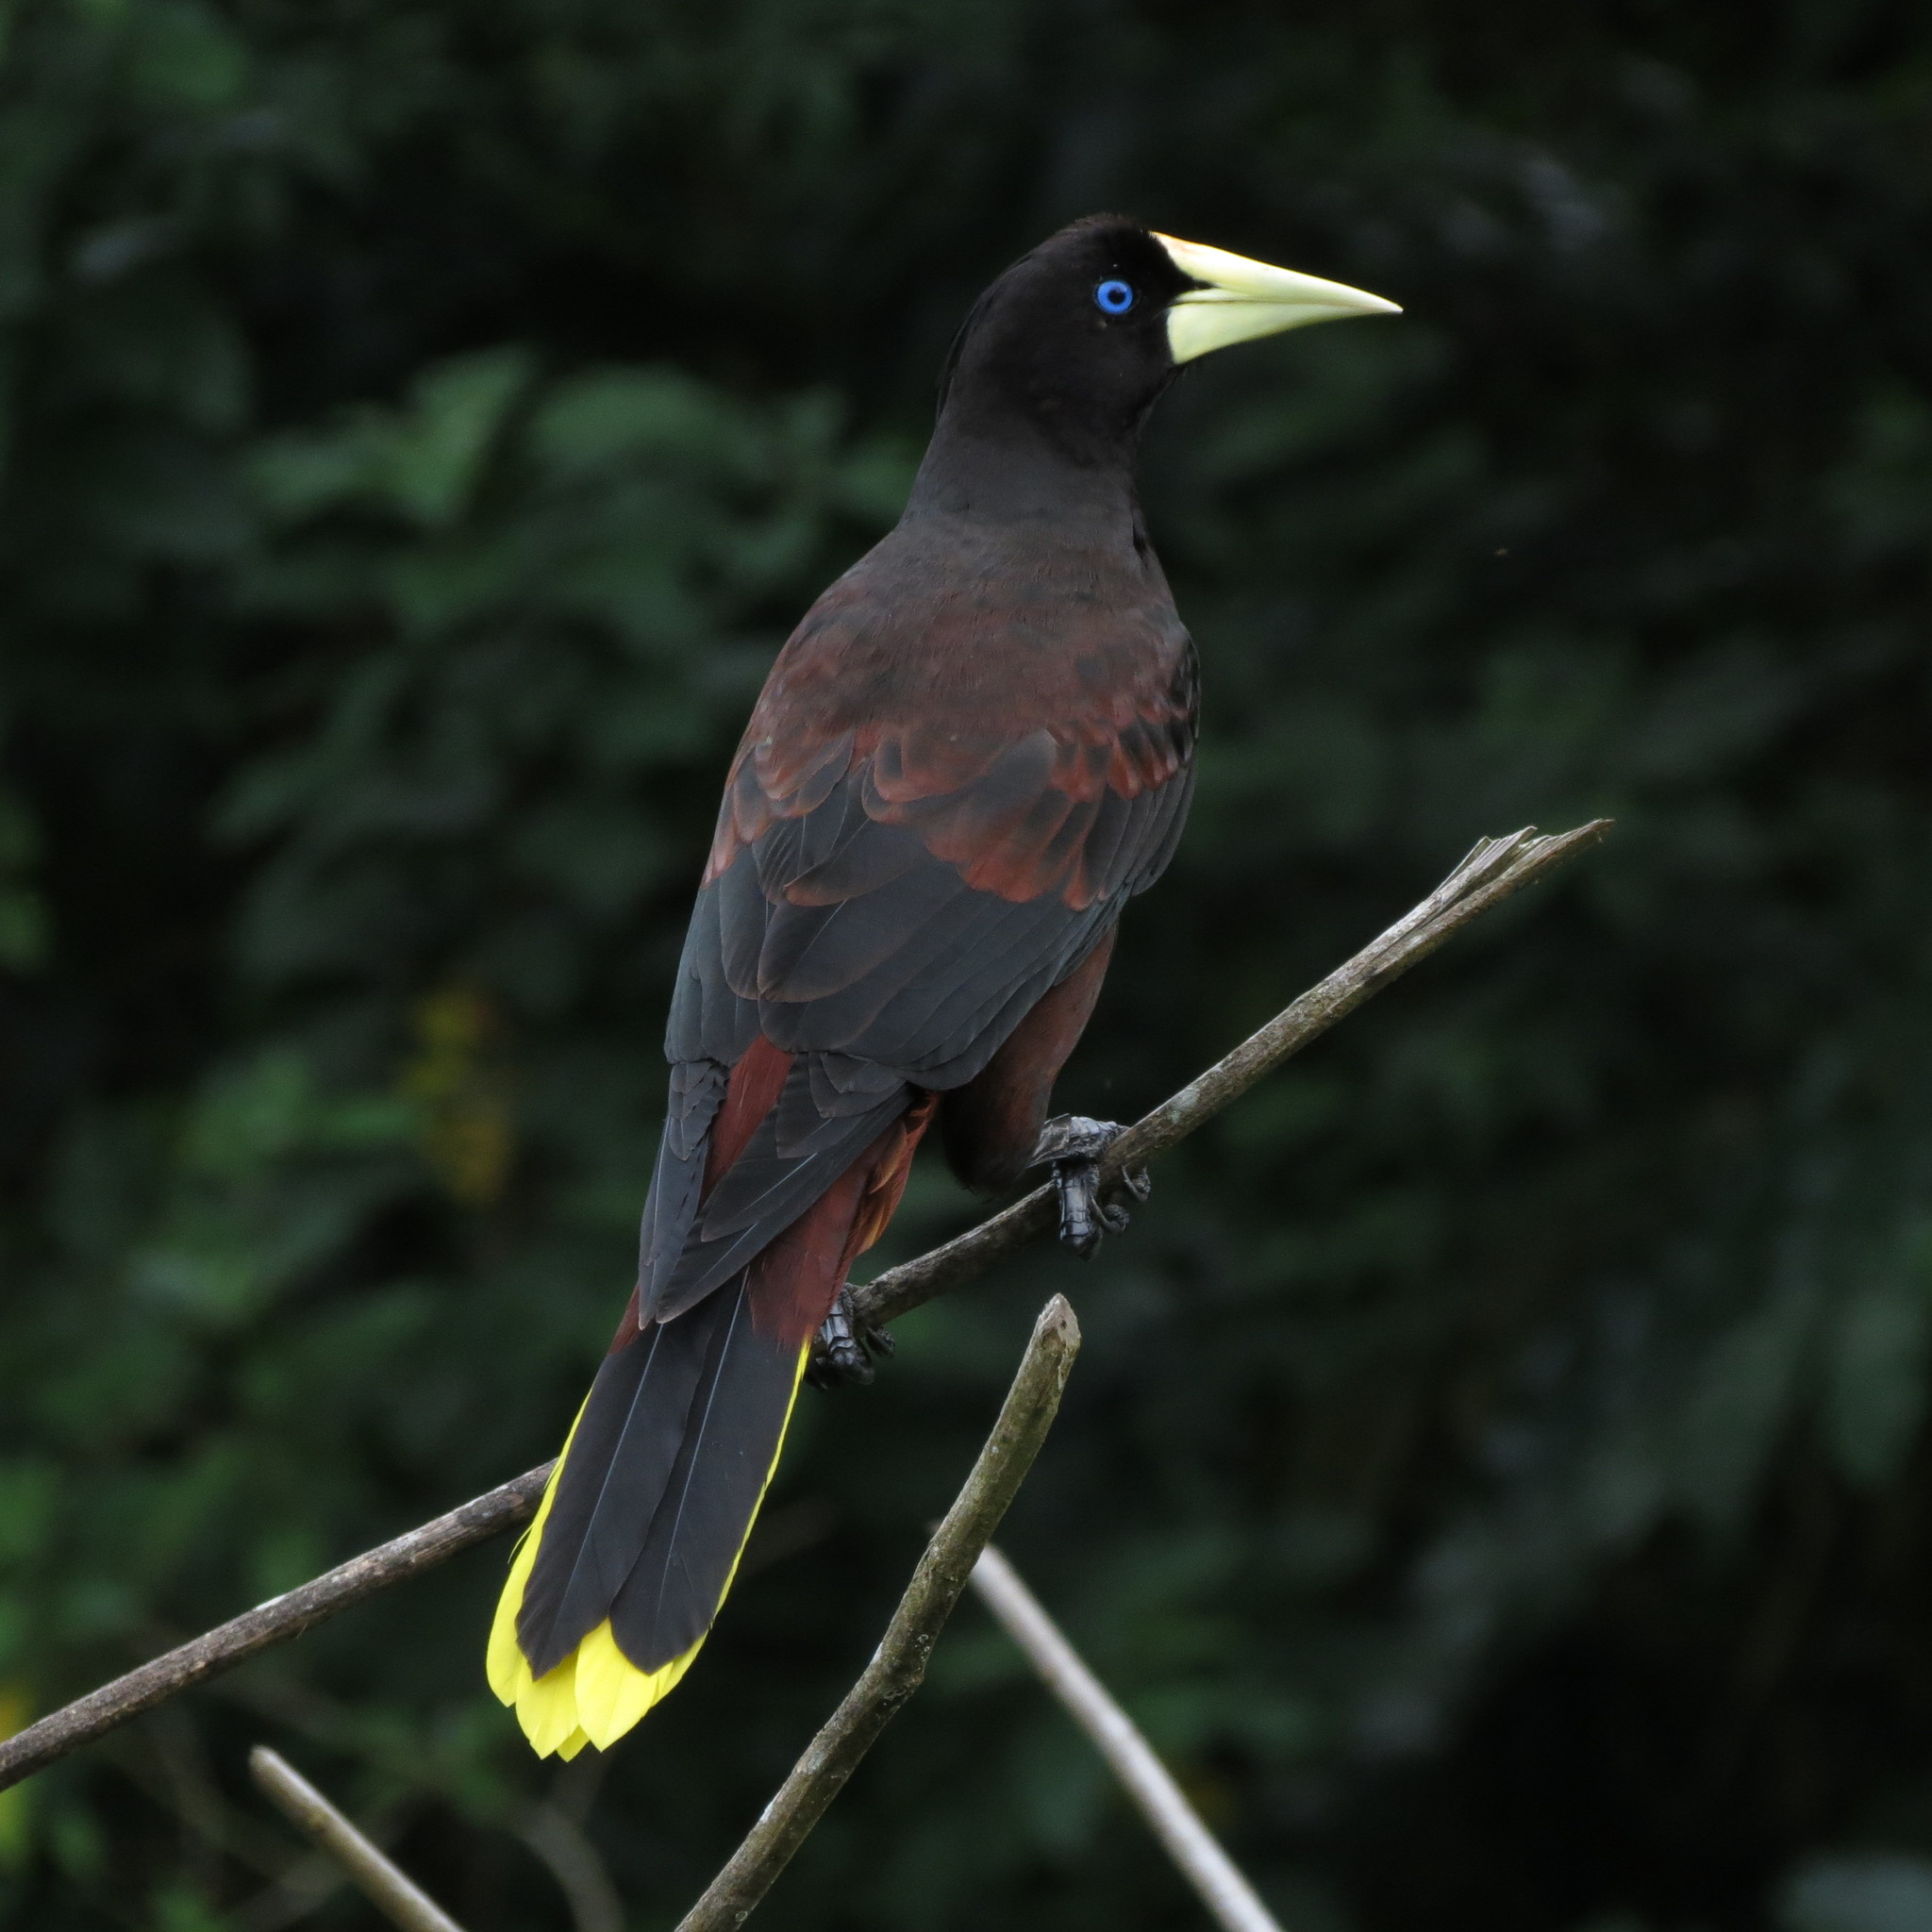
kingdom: Animalia
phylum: Chordata
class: Aves
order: Passeriformes
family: Icteridae
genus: Psarocolius
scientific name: Psarocolius decumanus
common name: Crested oropendola
